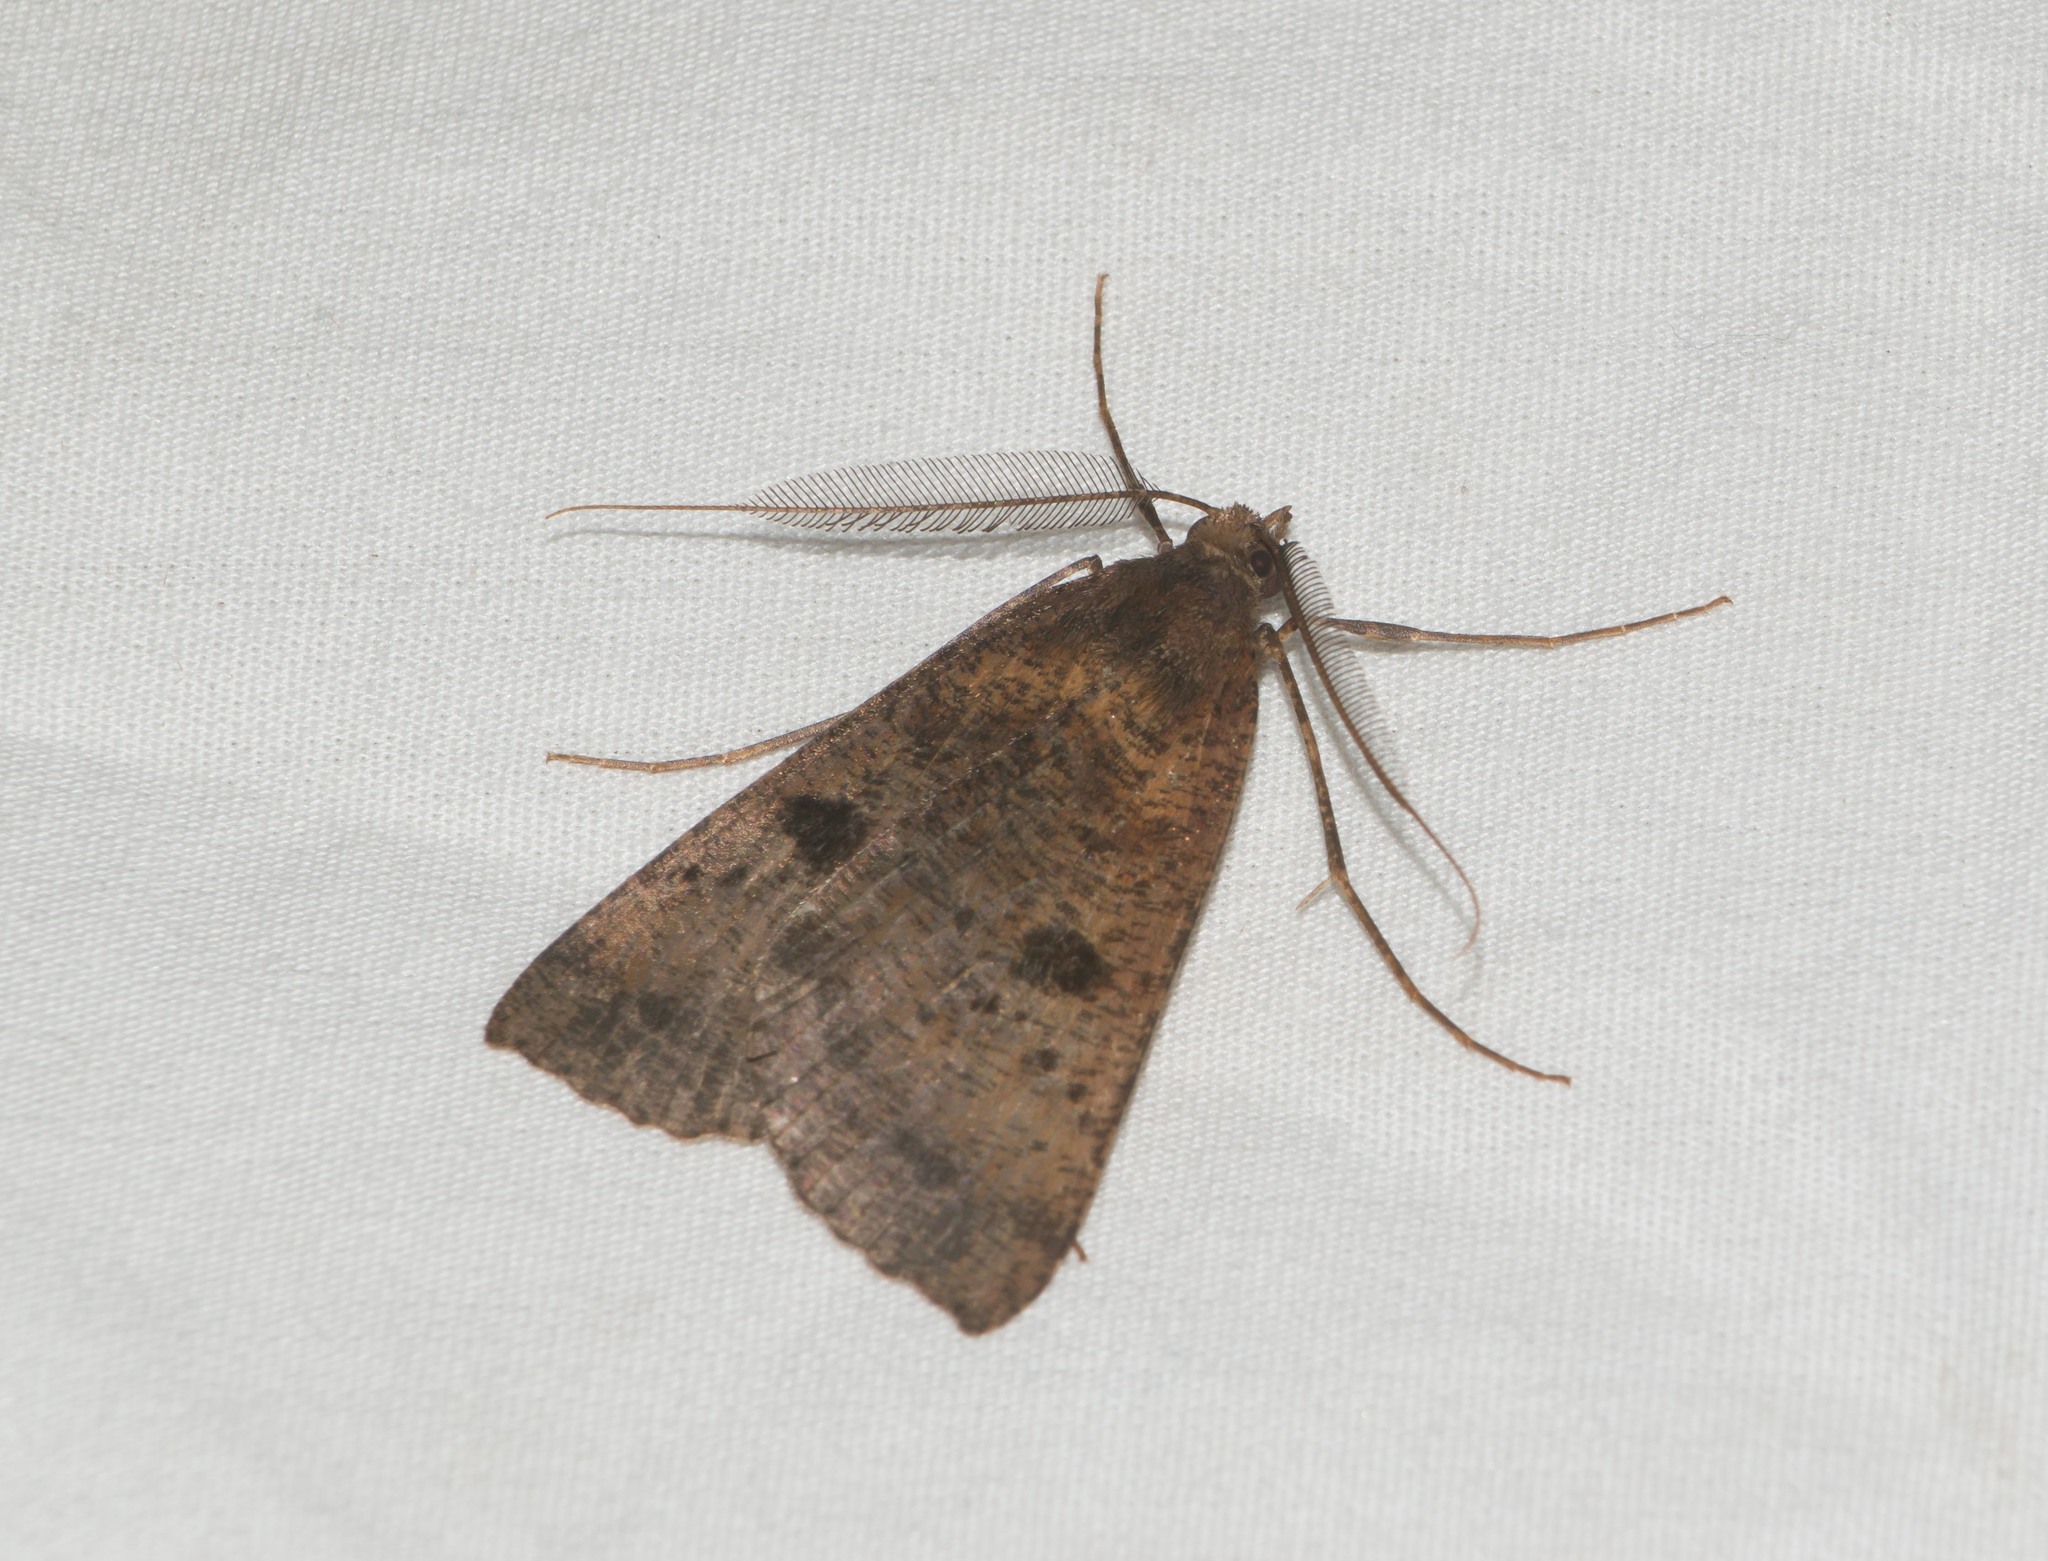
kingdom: Animalia
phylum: Arthropoda
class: Insecta
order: Lepidoptera
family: Geometridae
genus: Scotorythra
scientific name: Scotorythra rara
